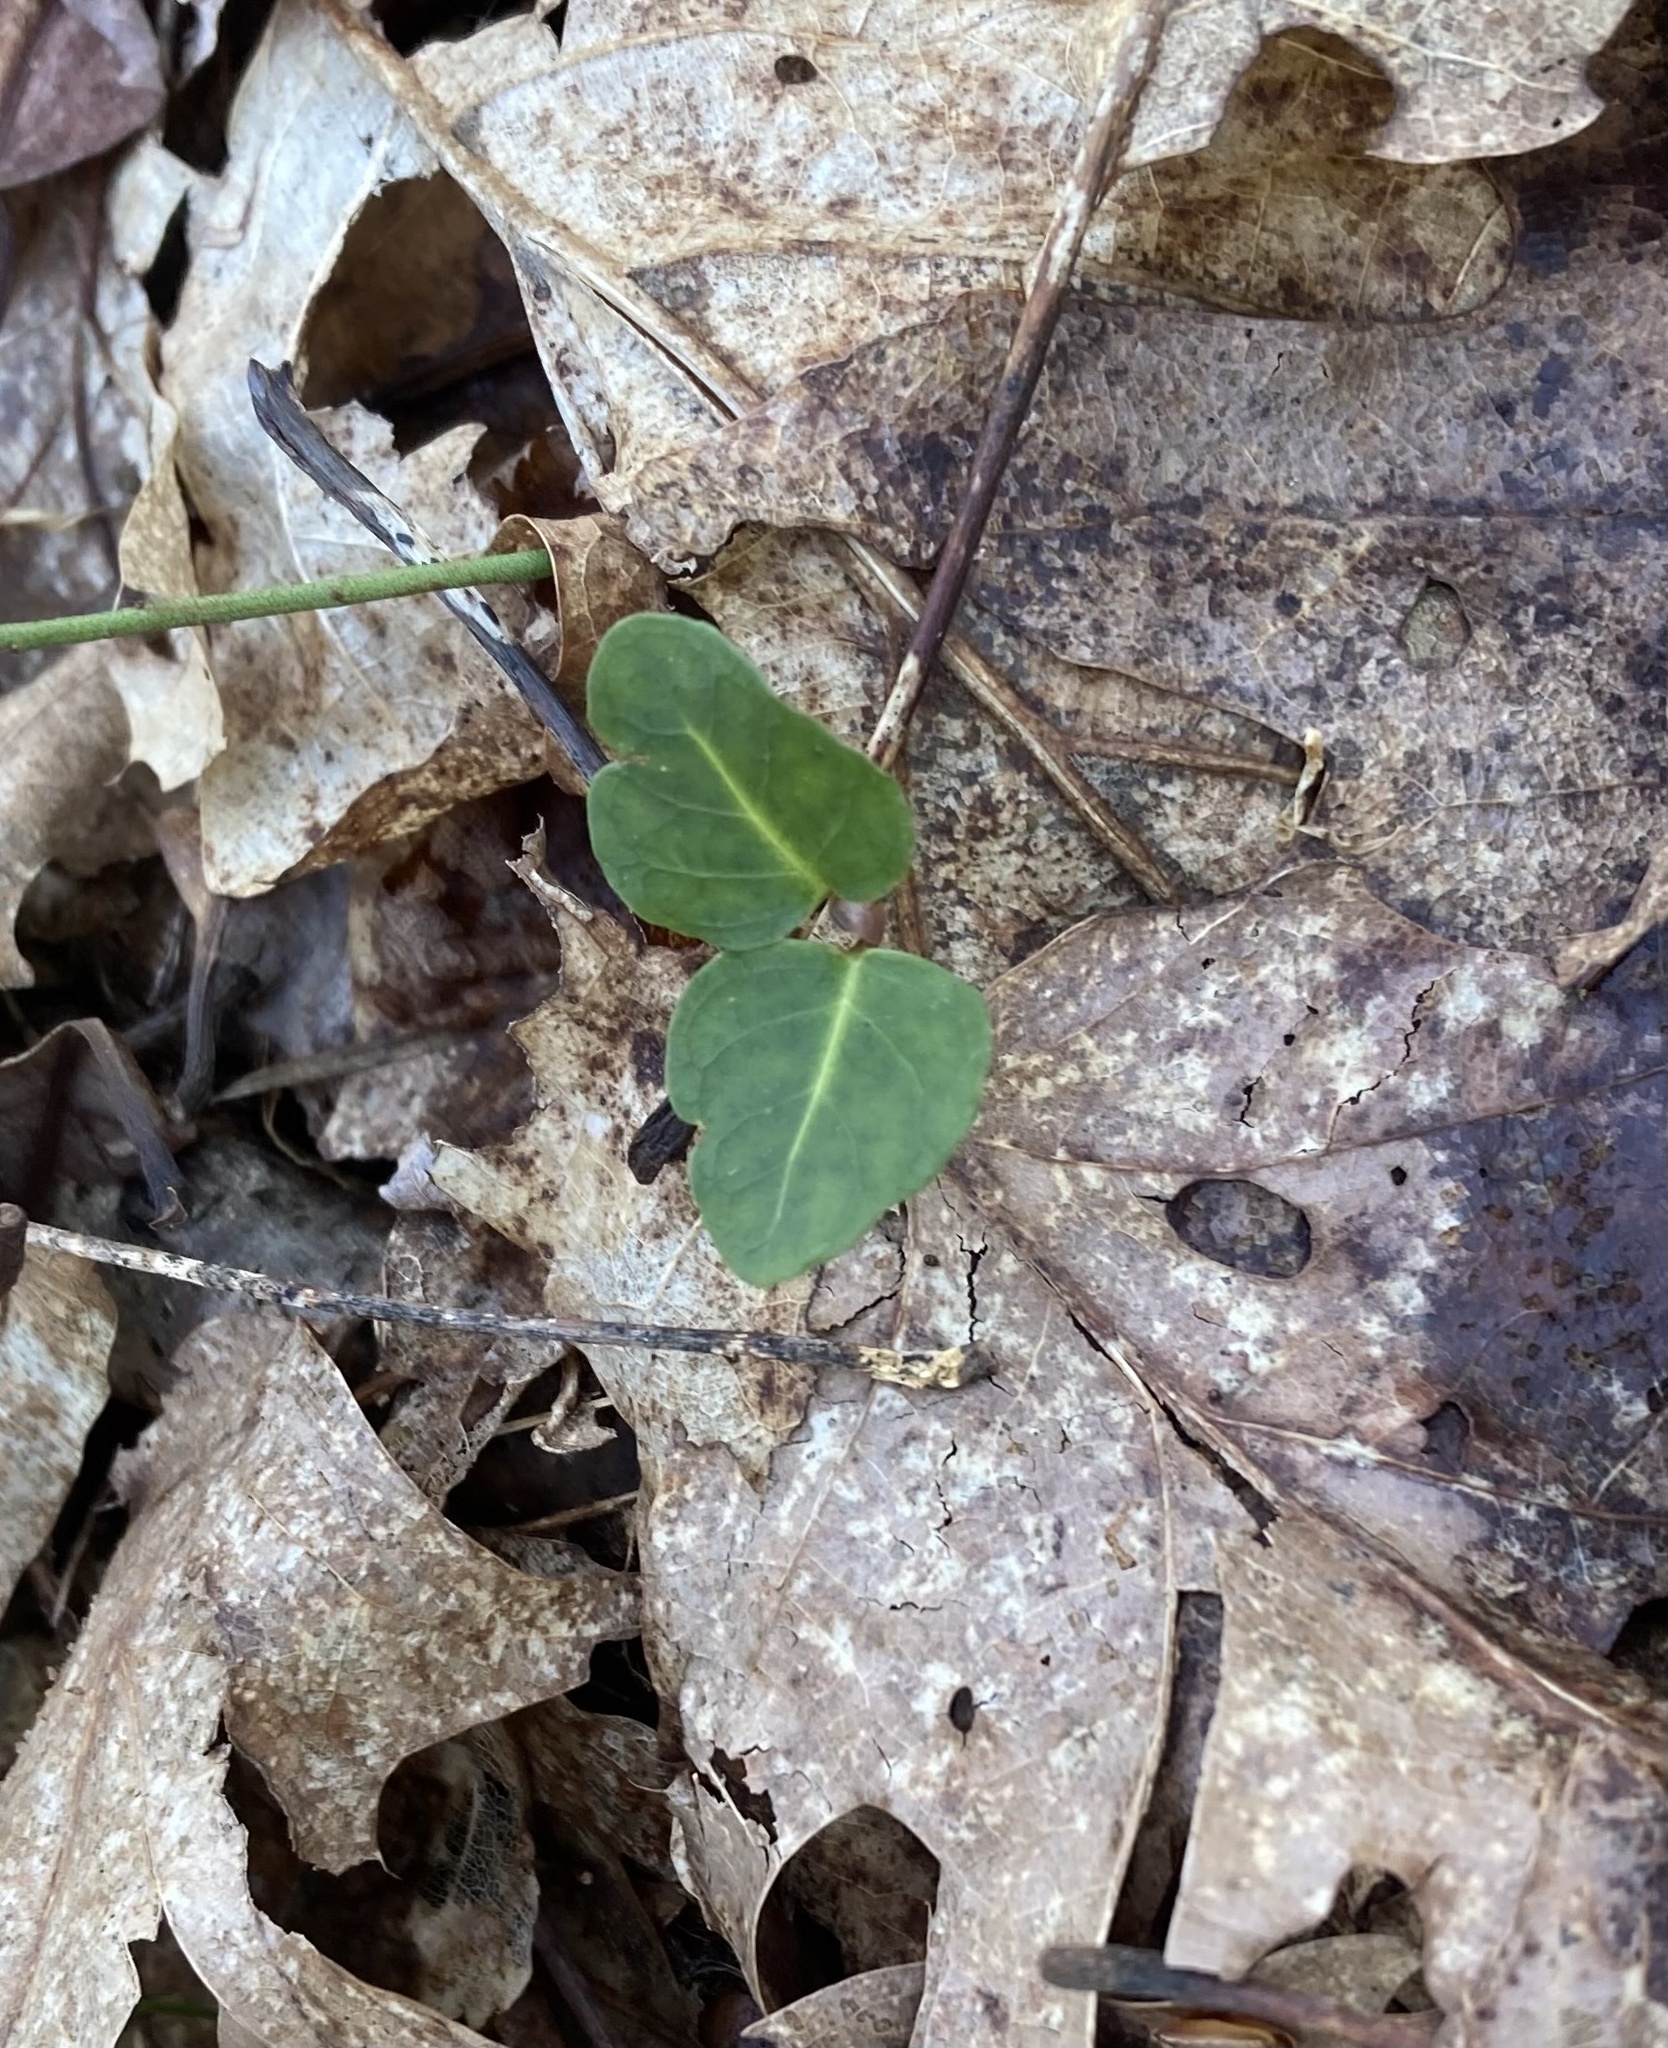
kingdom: Plantae
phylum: Tracheophyta
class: Magnoliopsida
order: Gentianales
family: Rubiaceae
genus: Mitchella
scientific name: Mitchella repens
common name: Partridge-berry
